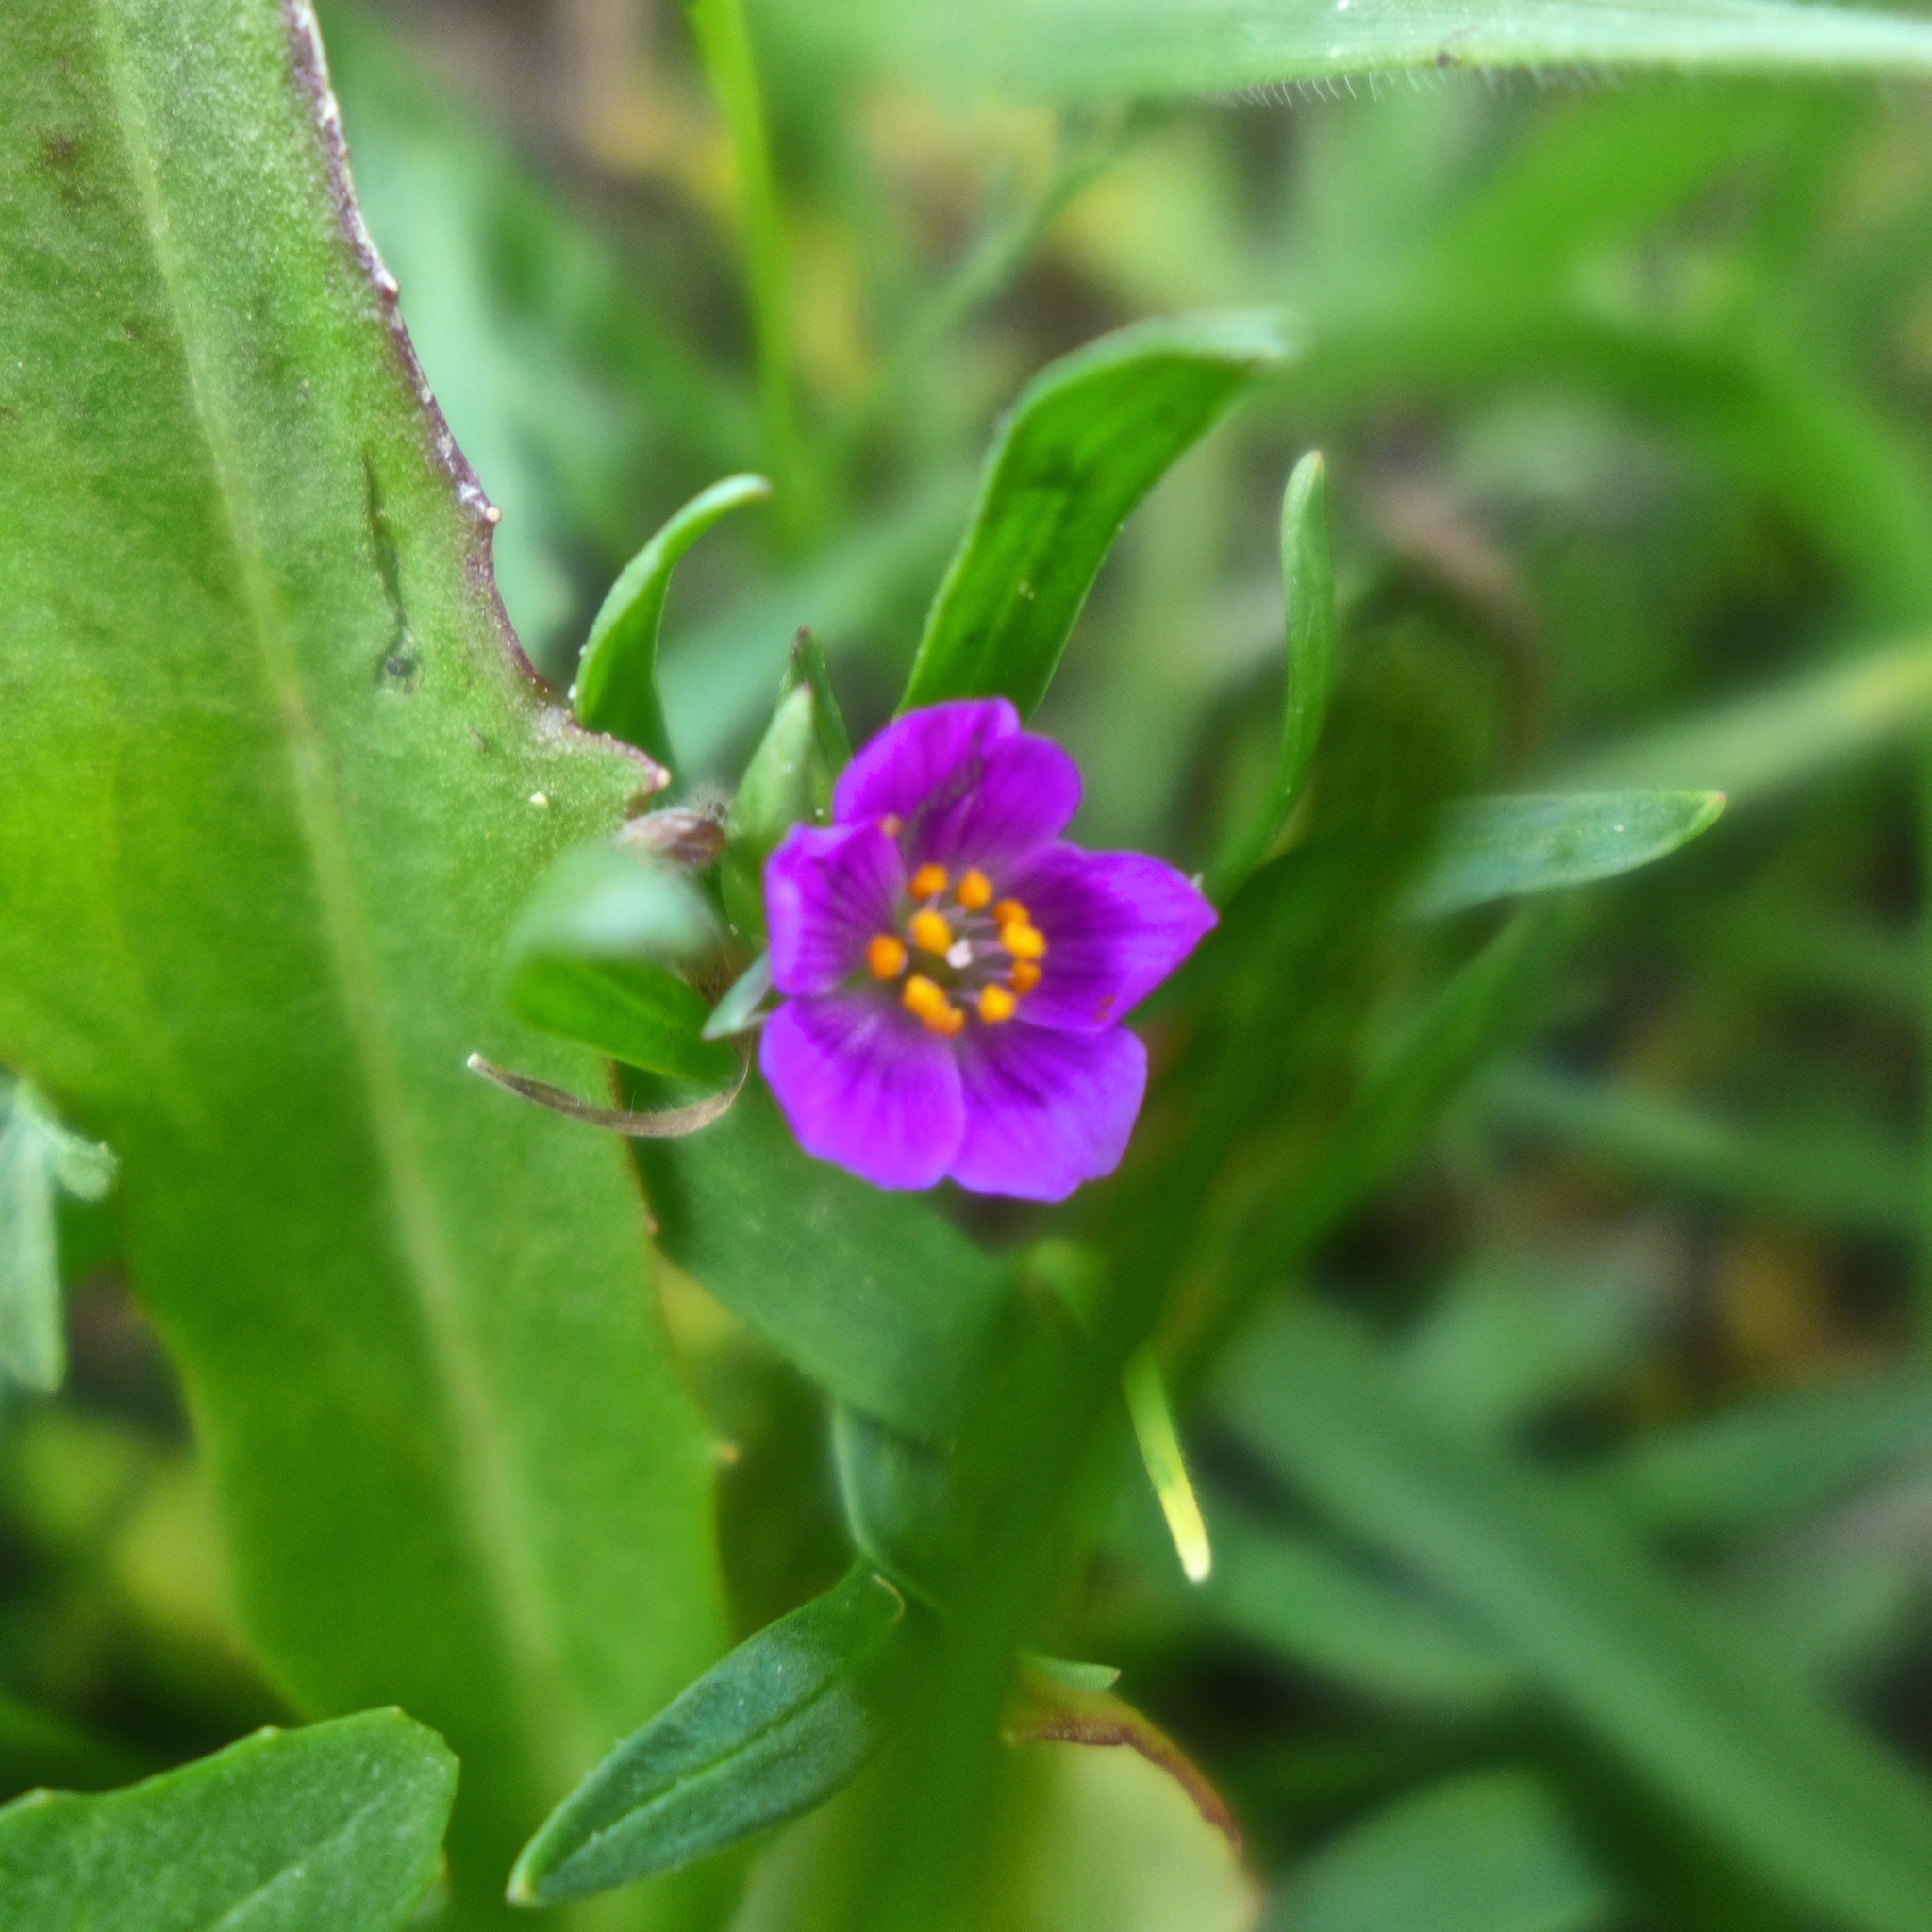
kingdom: Plantae
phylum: Tracheophyta
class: Magnoliopsida
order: Caryophyllales
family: Montiaceae
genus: Calandrinia
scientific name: Calandrinia menziesii
